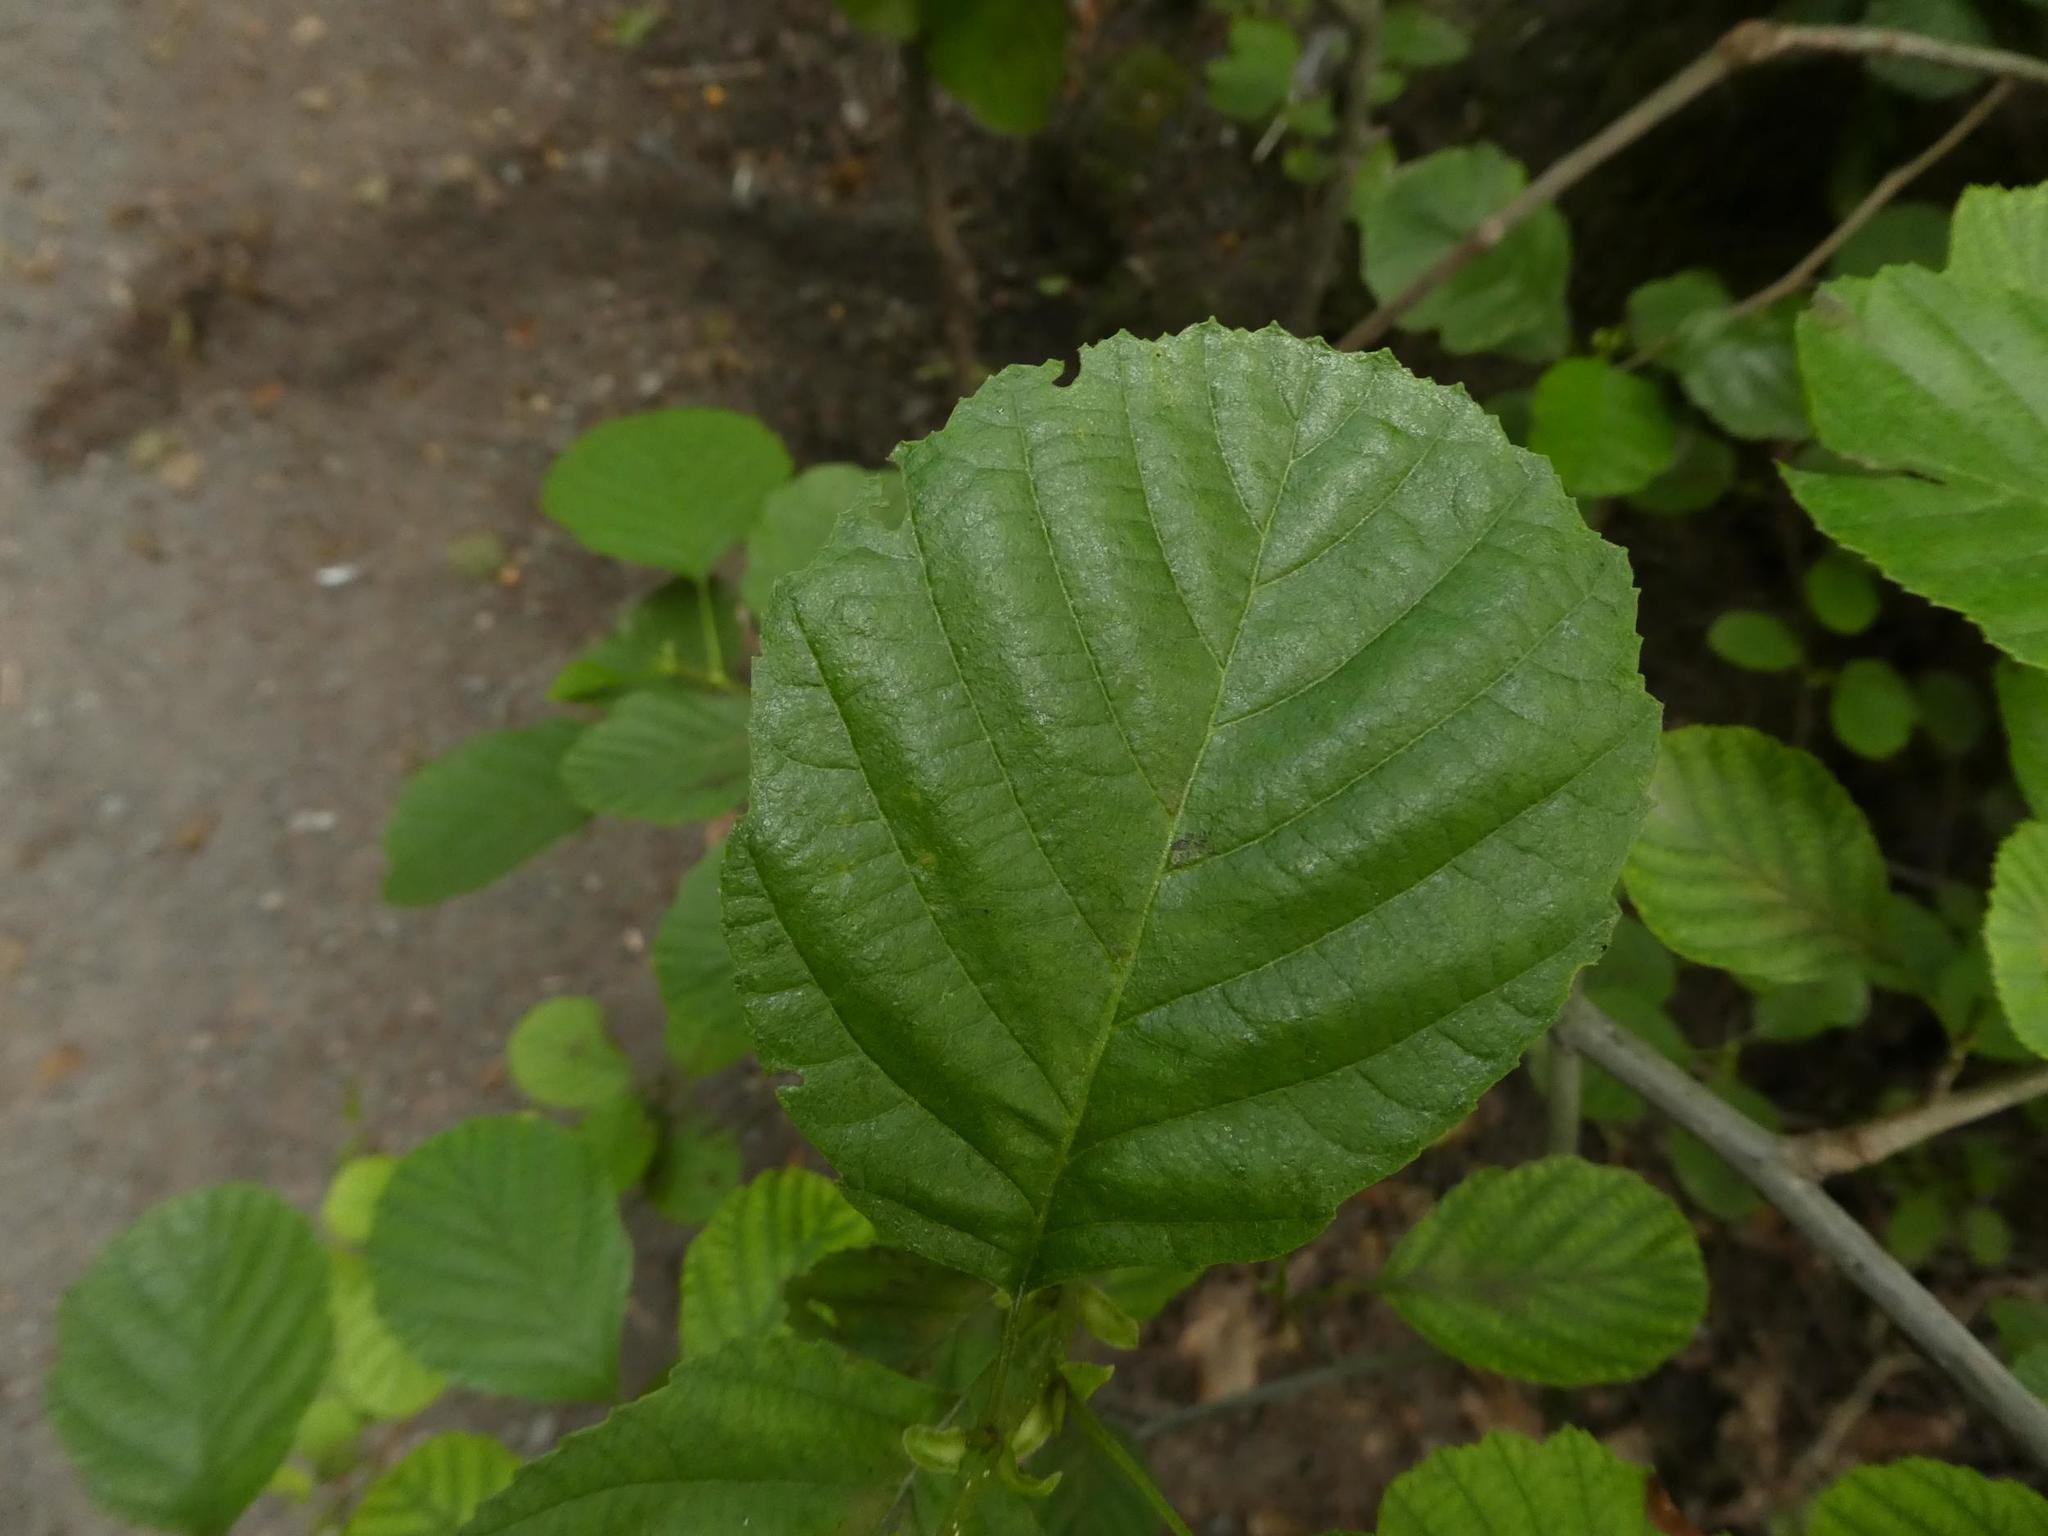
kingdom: Plantae
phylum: Tracheophyta
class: Magnoliopsida
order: Fagales
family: Betulaceae
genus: Alnus
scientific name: Alnus glutinosa
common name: Black alder
